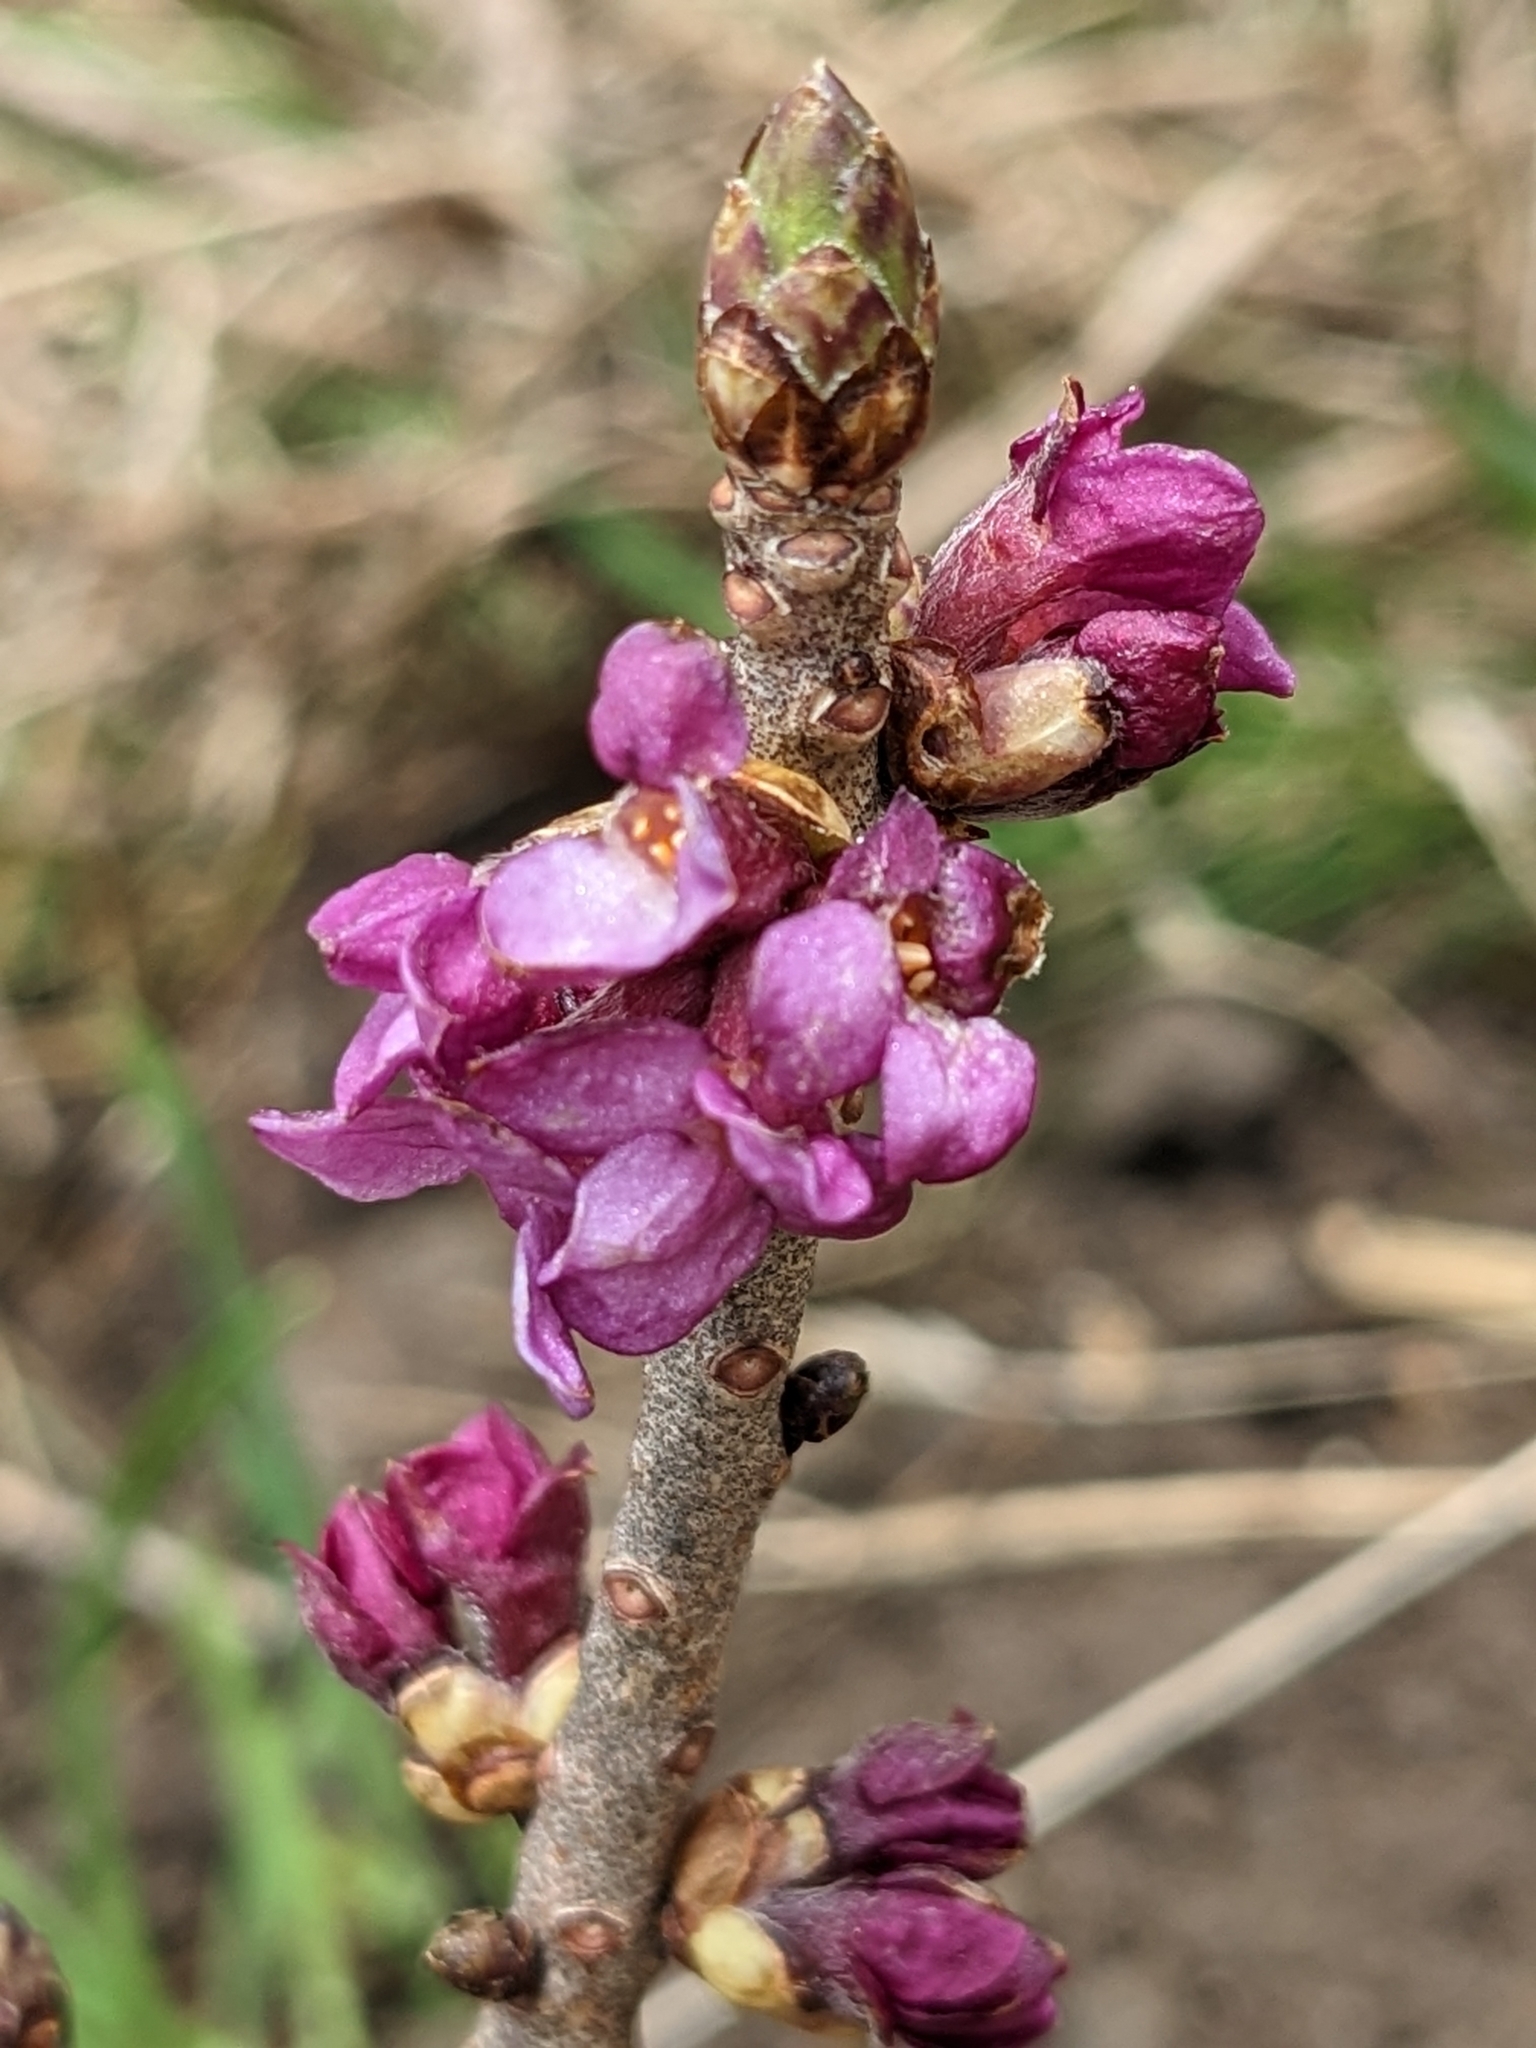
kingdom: Plantae
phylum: Tracheophyta
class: Magnoliopsida
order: Malvales
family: Thymelaeaceae
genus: Daphne
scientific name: Daphne mezereum
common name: Mezereon
